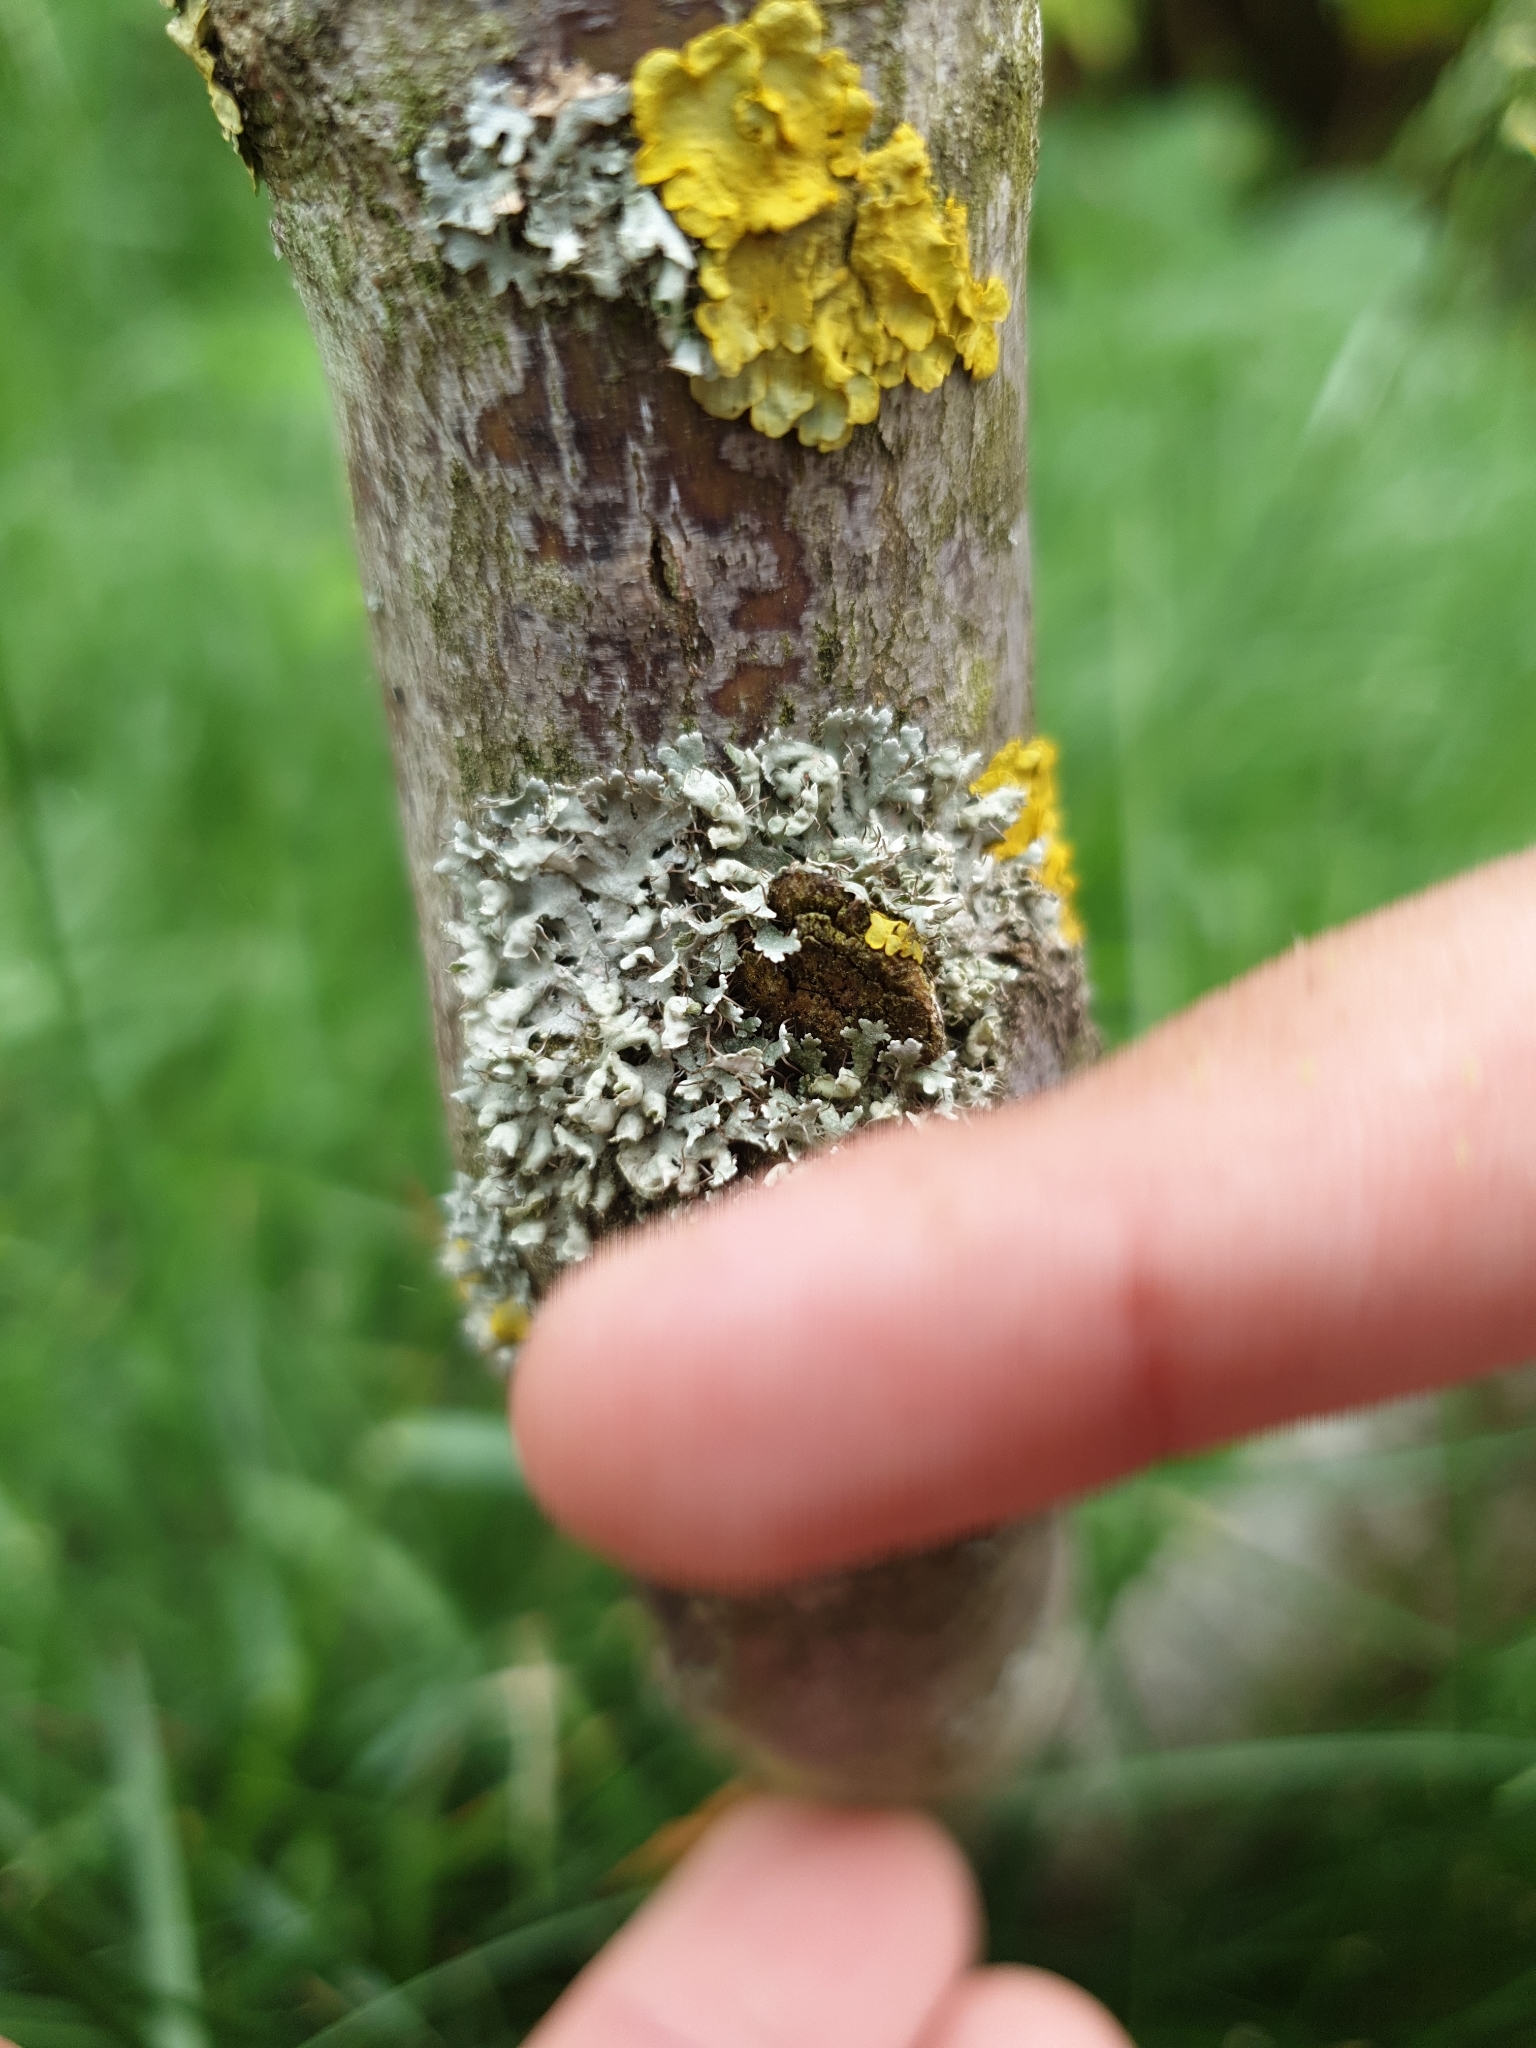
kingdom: Fungi
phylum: Ascomycota
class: Lecanoromycetes
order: Caliciales
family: Physciaceae
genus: Physcia
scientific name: Physcia adscendens
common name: Hooded rosette lichen
